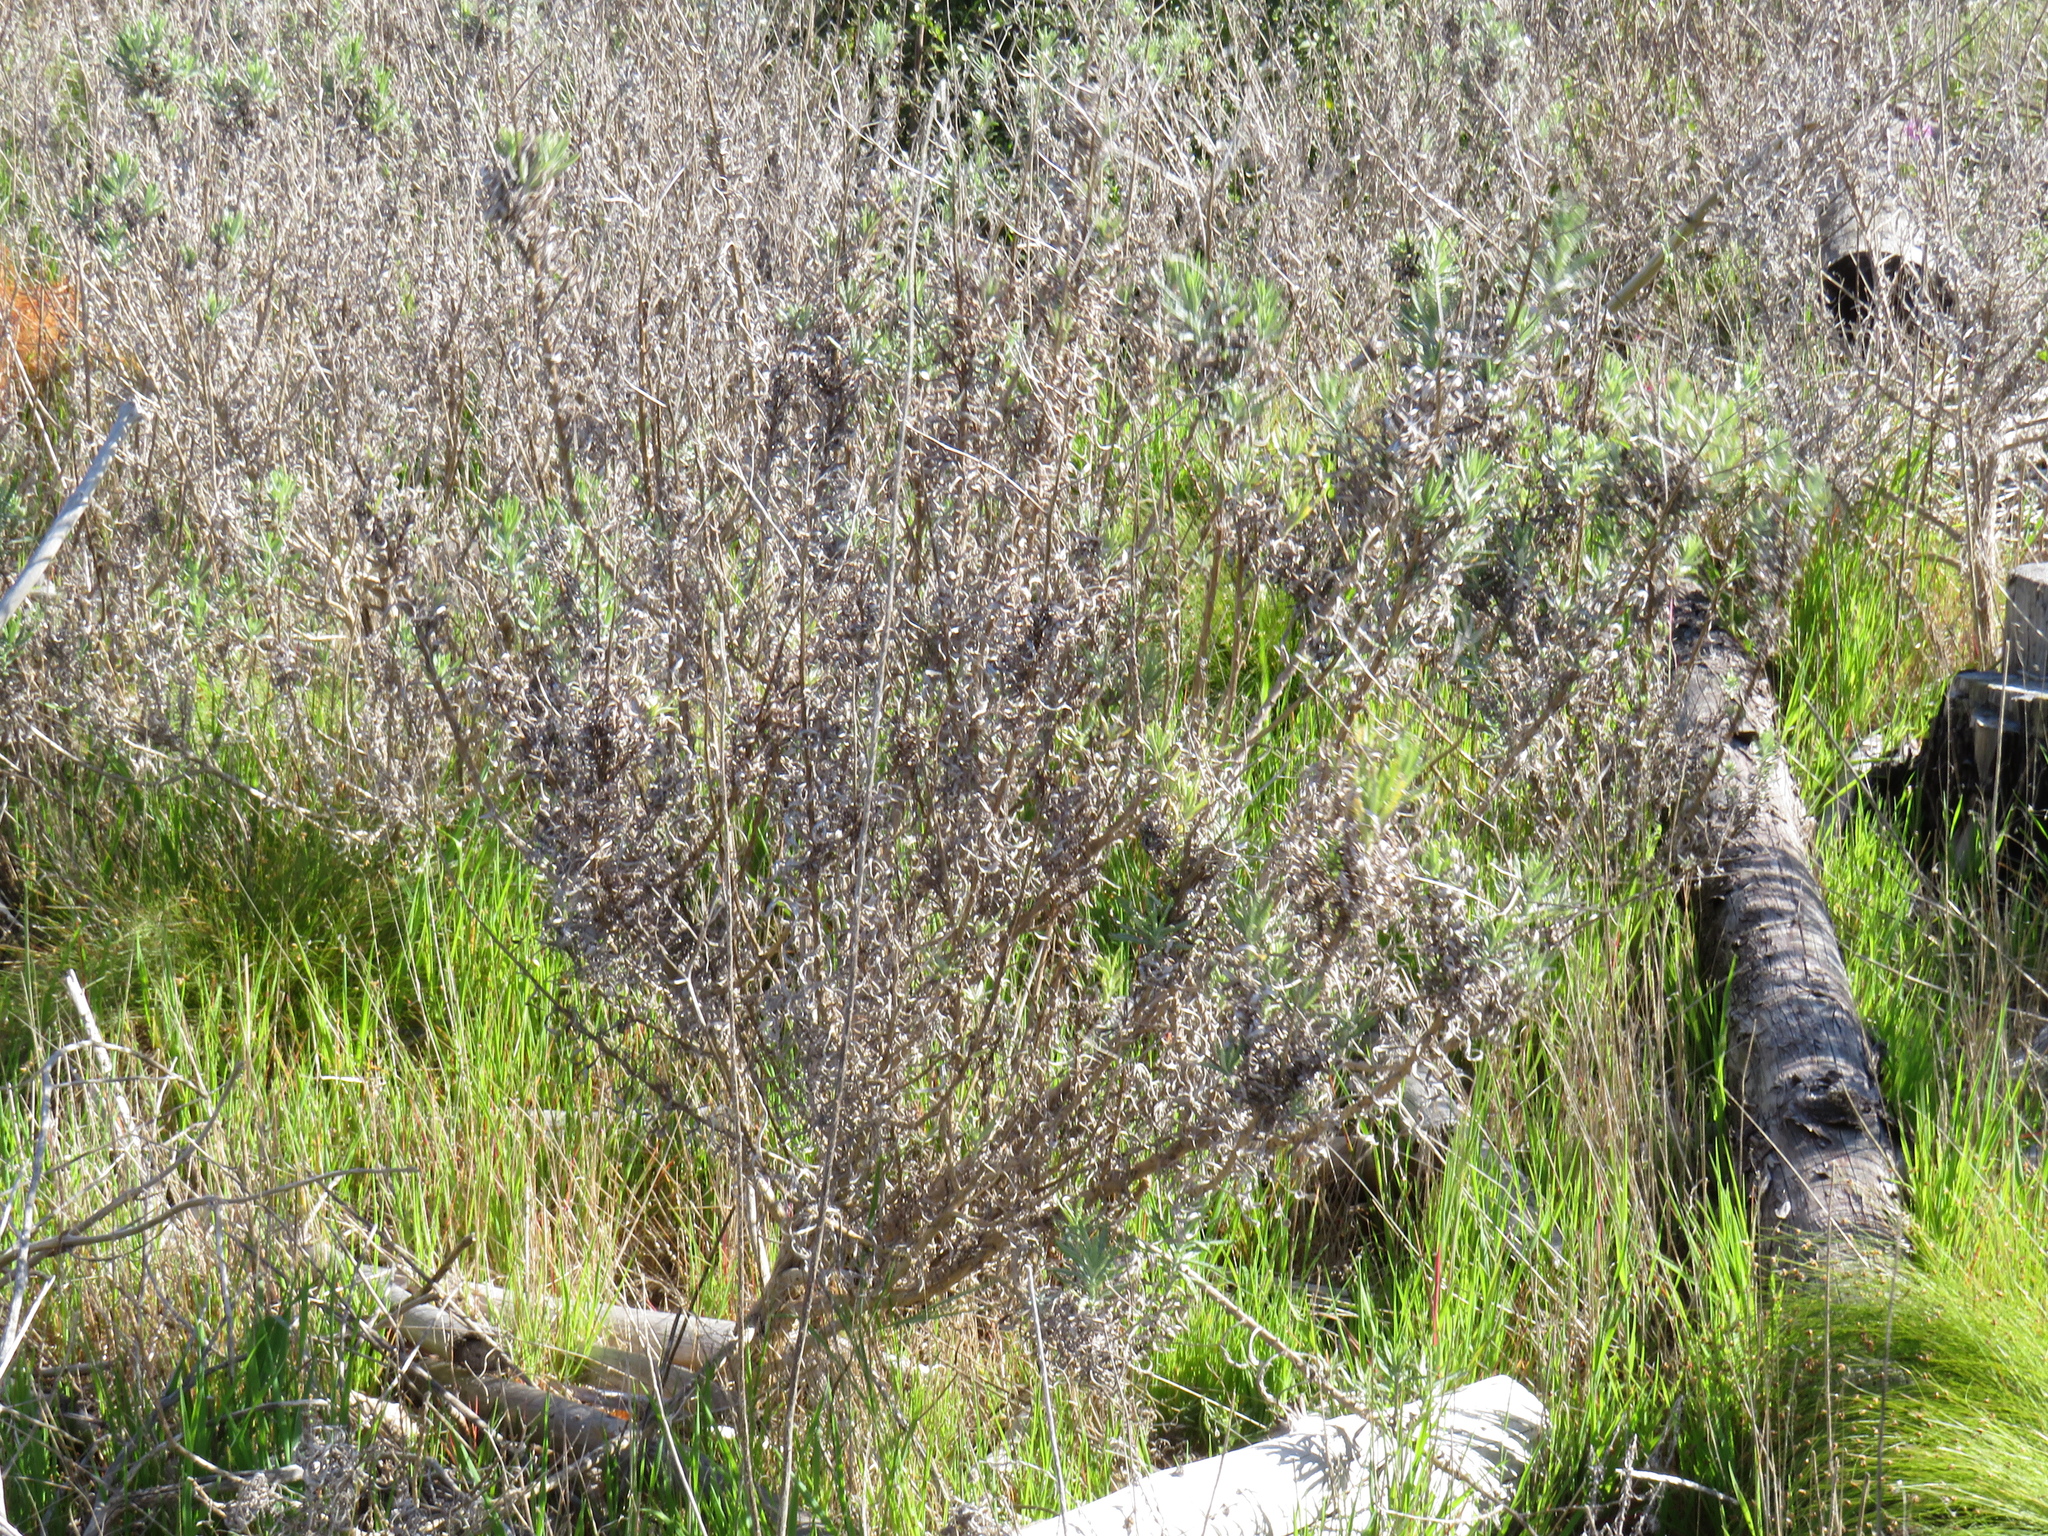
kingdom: Plantae
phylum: Tracheophyta
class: Magnoliopsida
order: Asterales
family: Asteraceae
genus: Senecio
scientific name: Senecio pterophorus
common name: Shoddy ragwort
